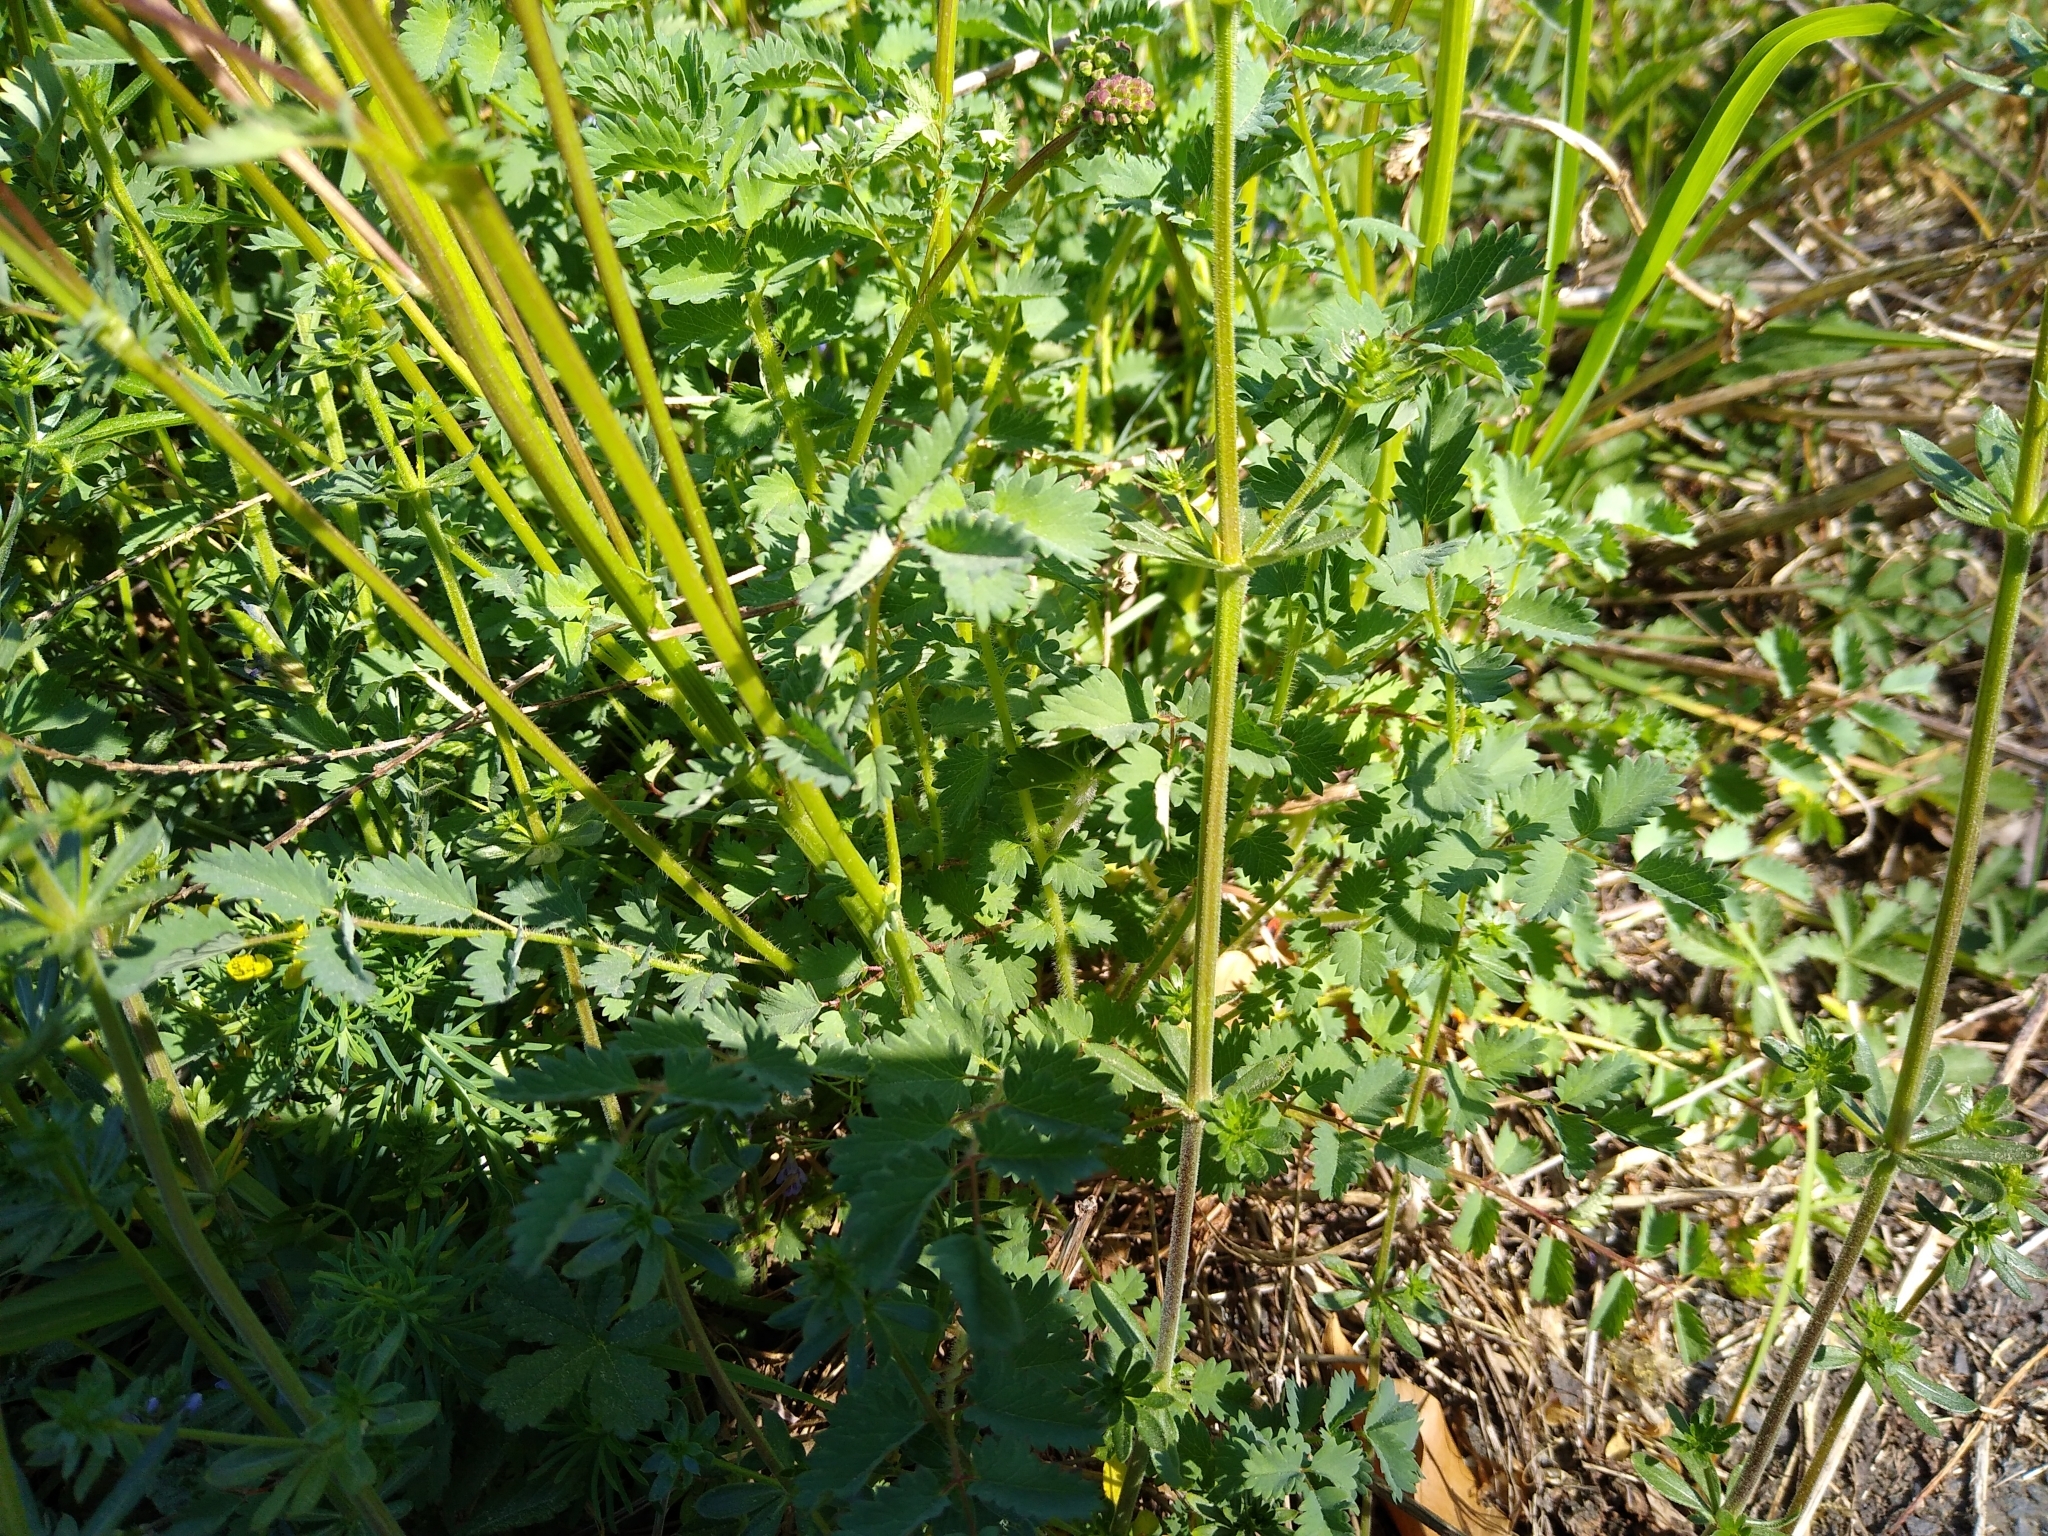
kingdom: Plantae
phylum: Tracheophyta
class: Magnoliopsida
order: Rosales
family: Rosaceae
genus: Poterium
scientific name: Poterium sanguisorba
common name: Salad burnet
